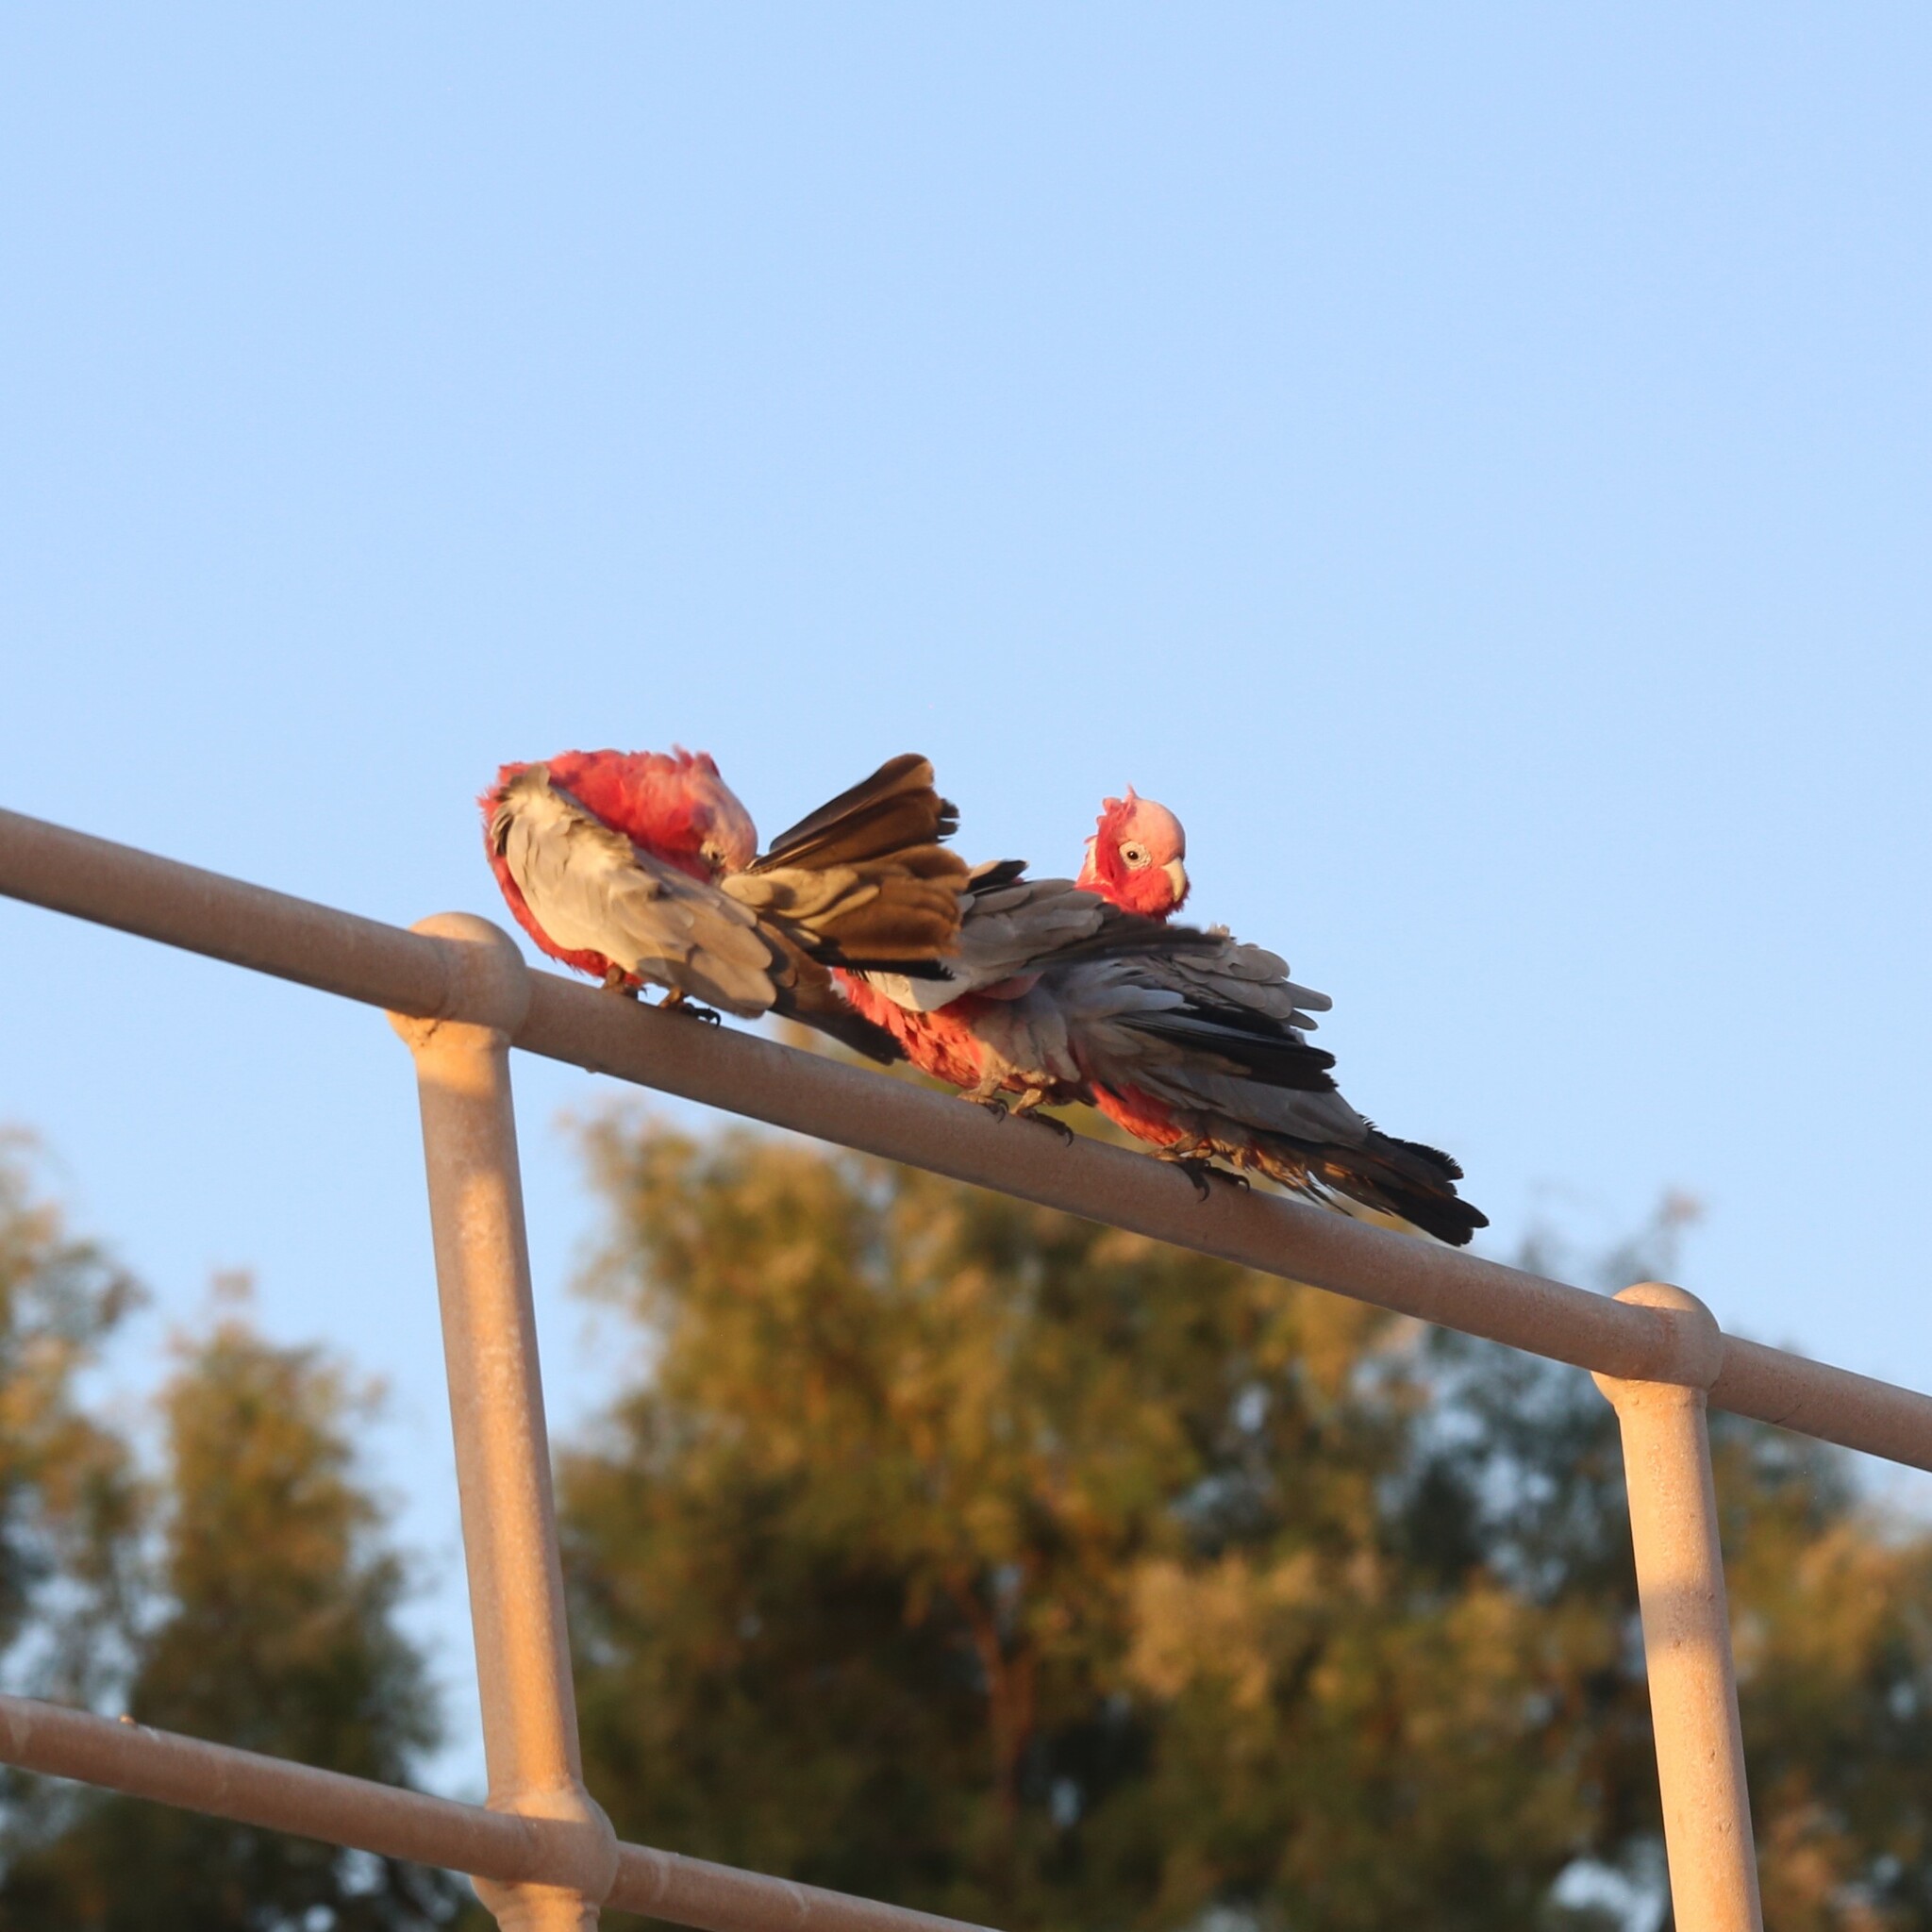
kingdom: Animalia
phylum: Chordata
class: Aves
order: Psittaciformes
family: Psittacidae
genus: Eolophus
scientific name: Eolophus roseicapilla
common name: Galah
